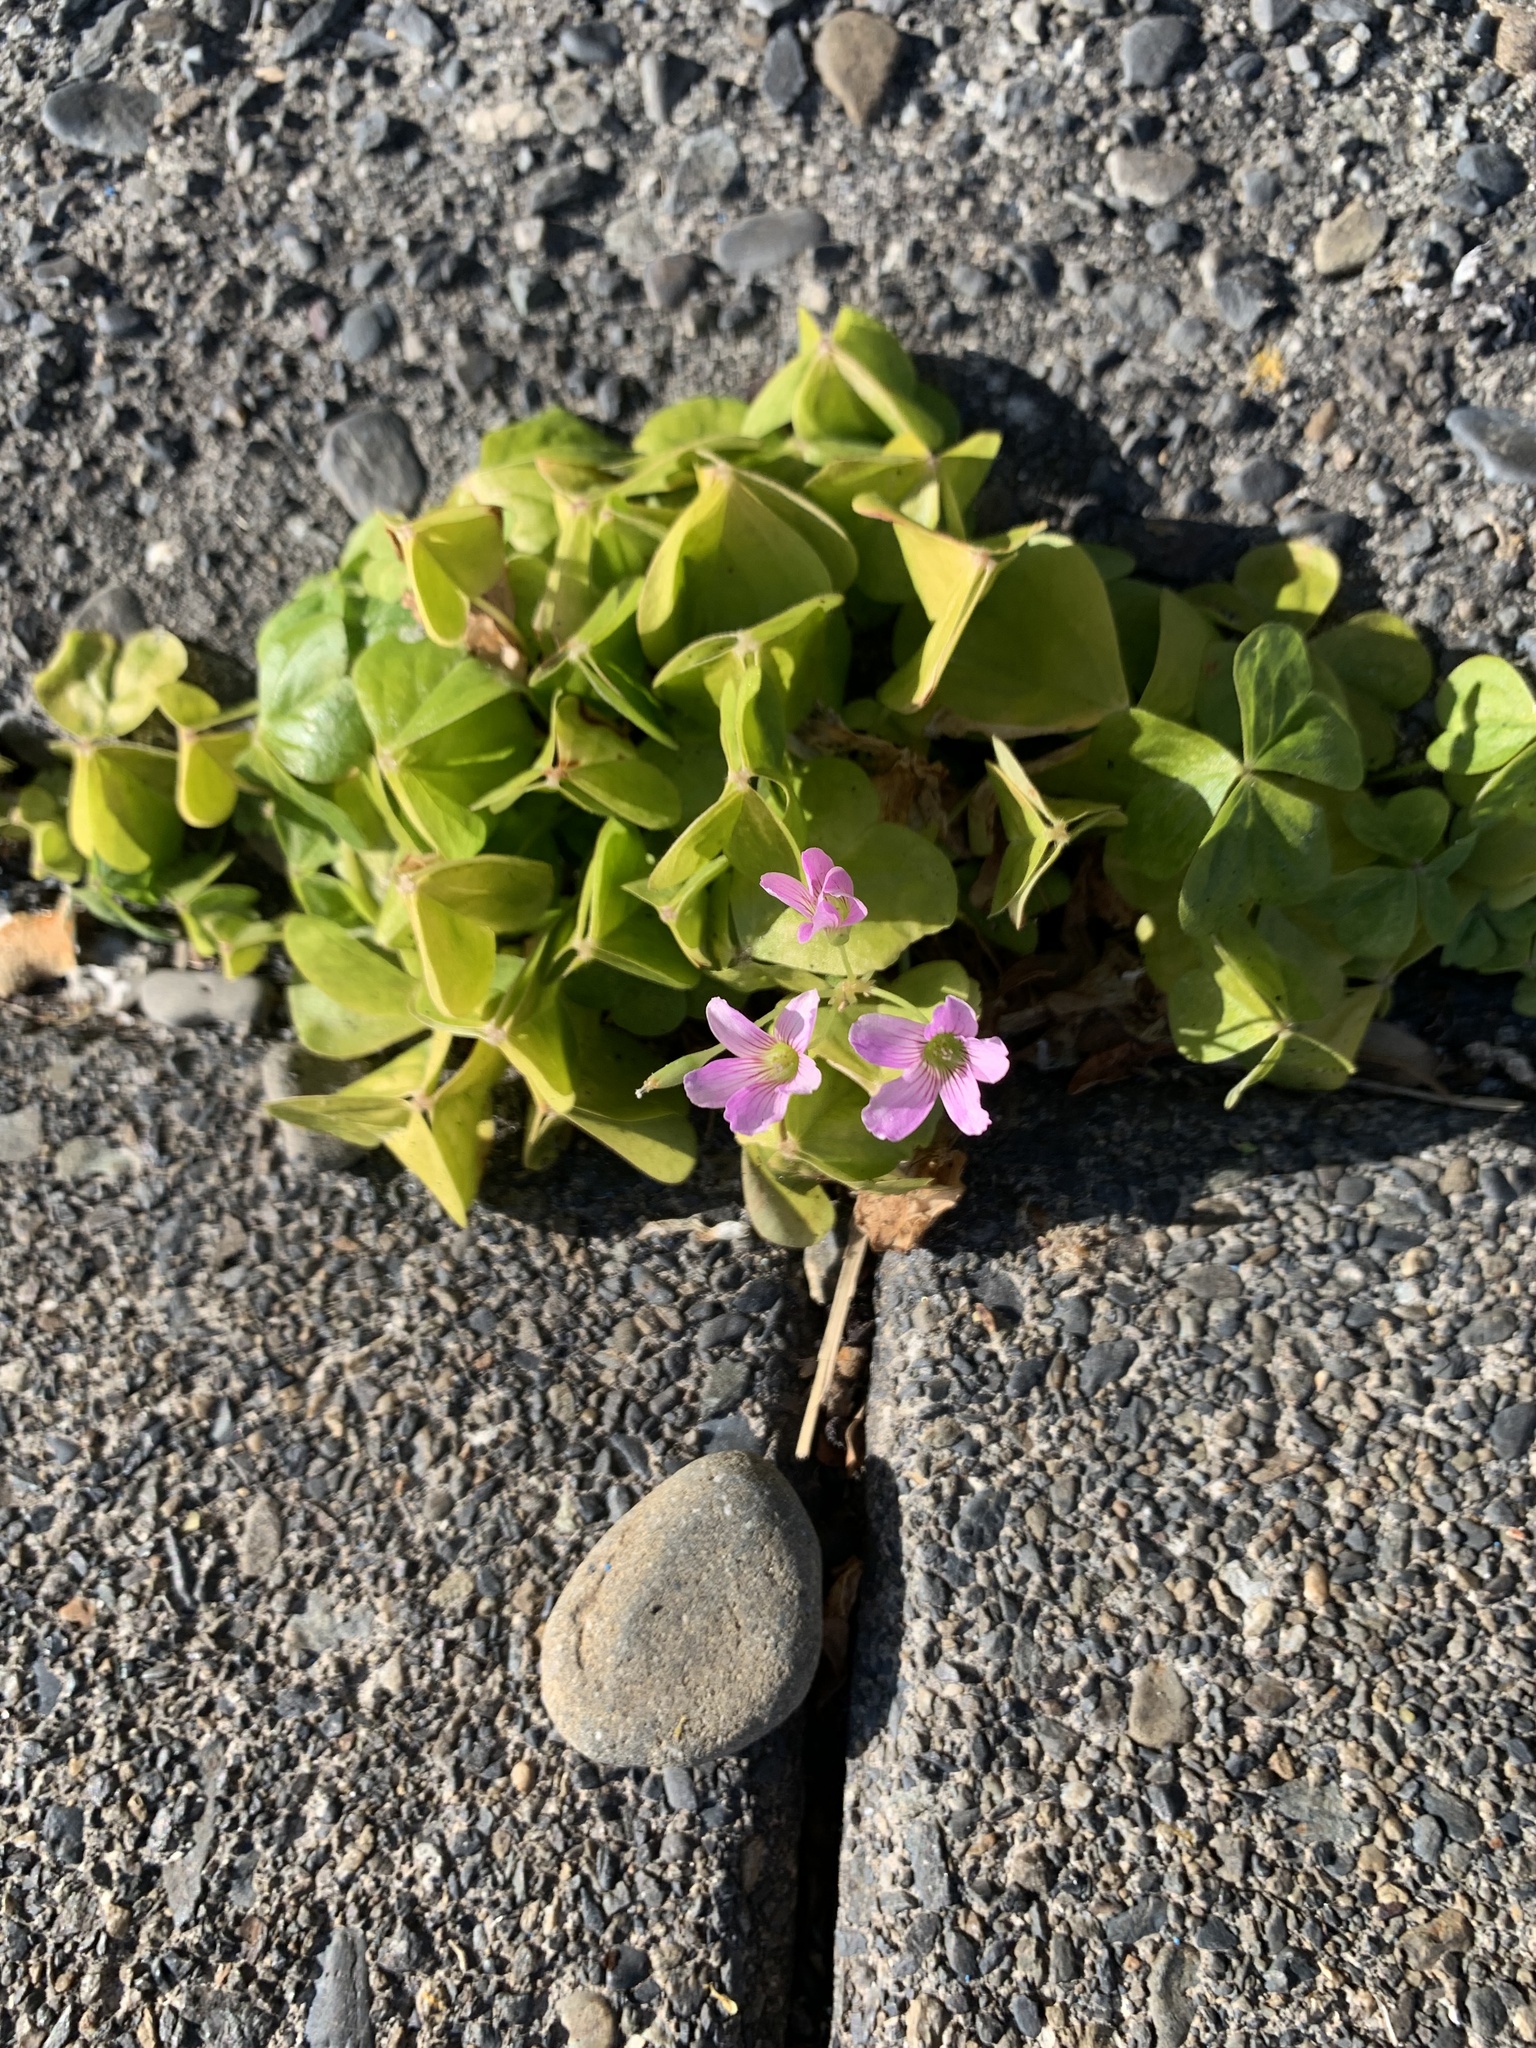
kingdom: Plantae
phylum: Tracheophyta
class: Magnoliopsida
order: Oxalidales
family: Oxalidaceae
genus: Oxalis
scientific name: Oxalis debilis
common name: Large-flowered pink-sorrel
